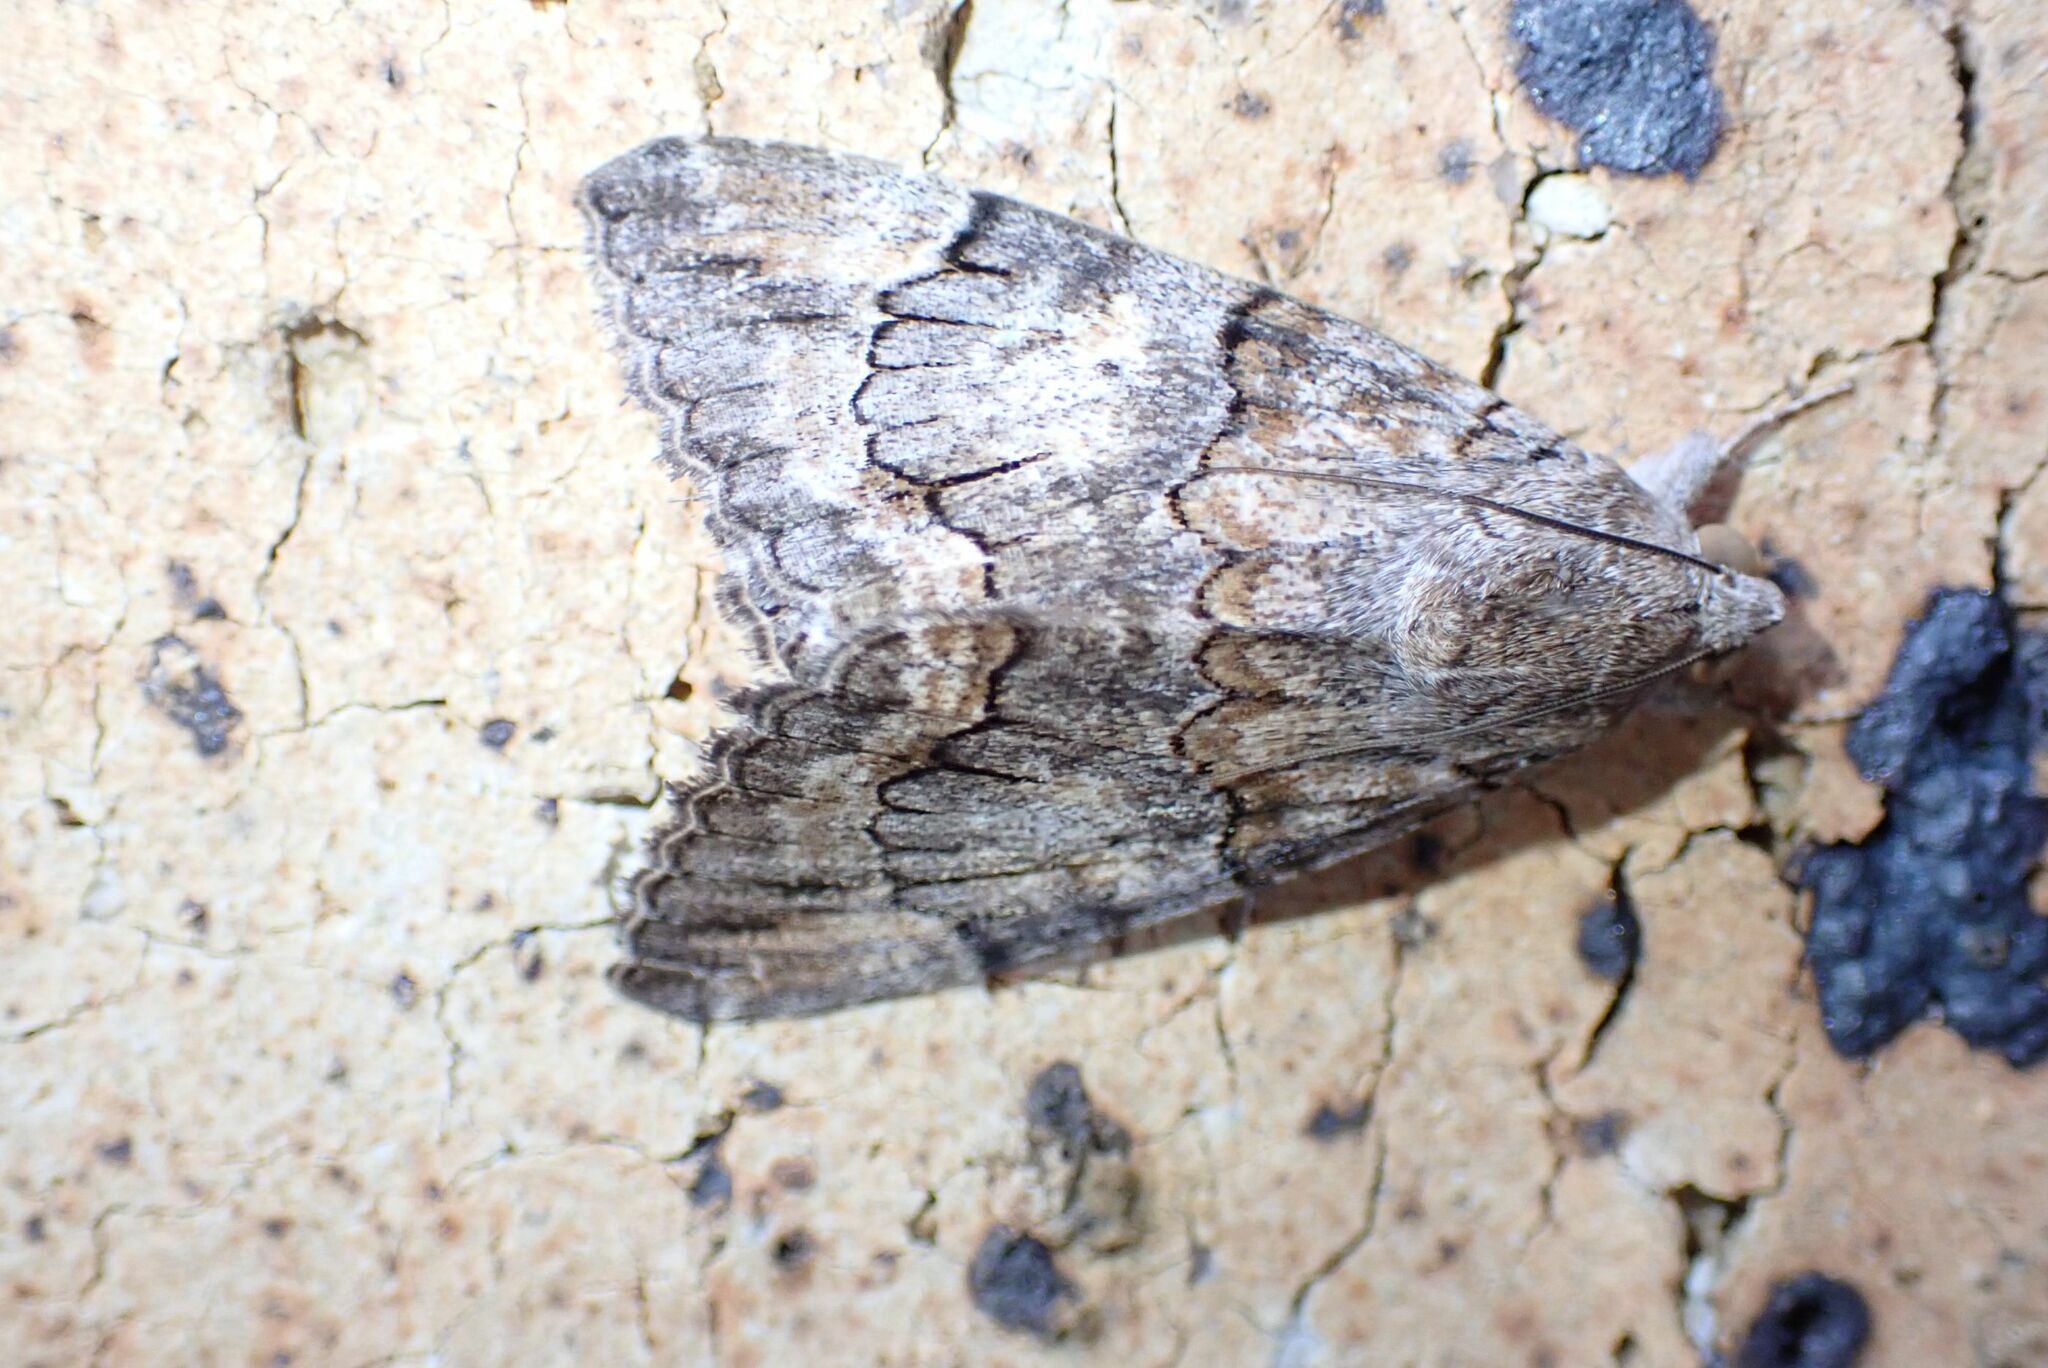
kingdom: Animalia
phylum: Arthropoda
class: Insecta
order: Lepidoptera
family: Erebidae
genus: Achaea
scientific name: Achaea catella
